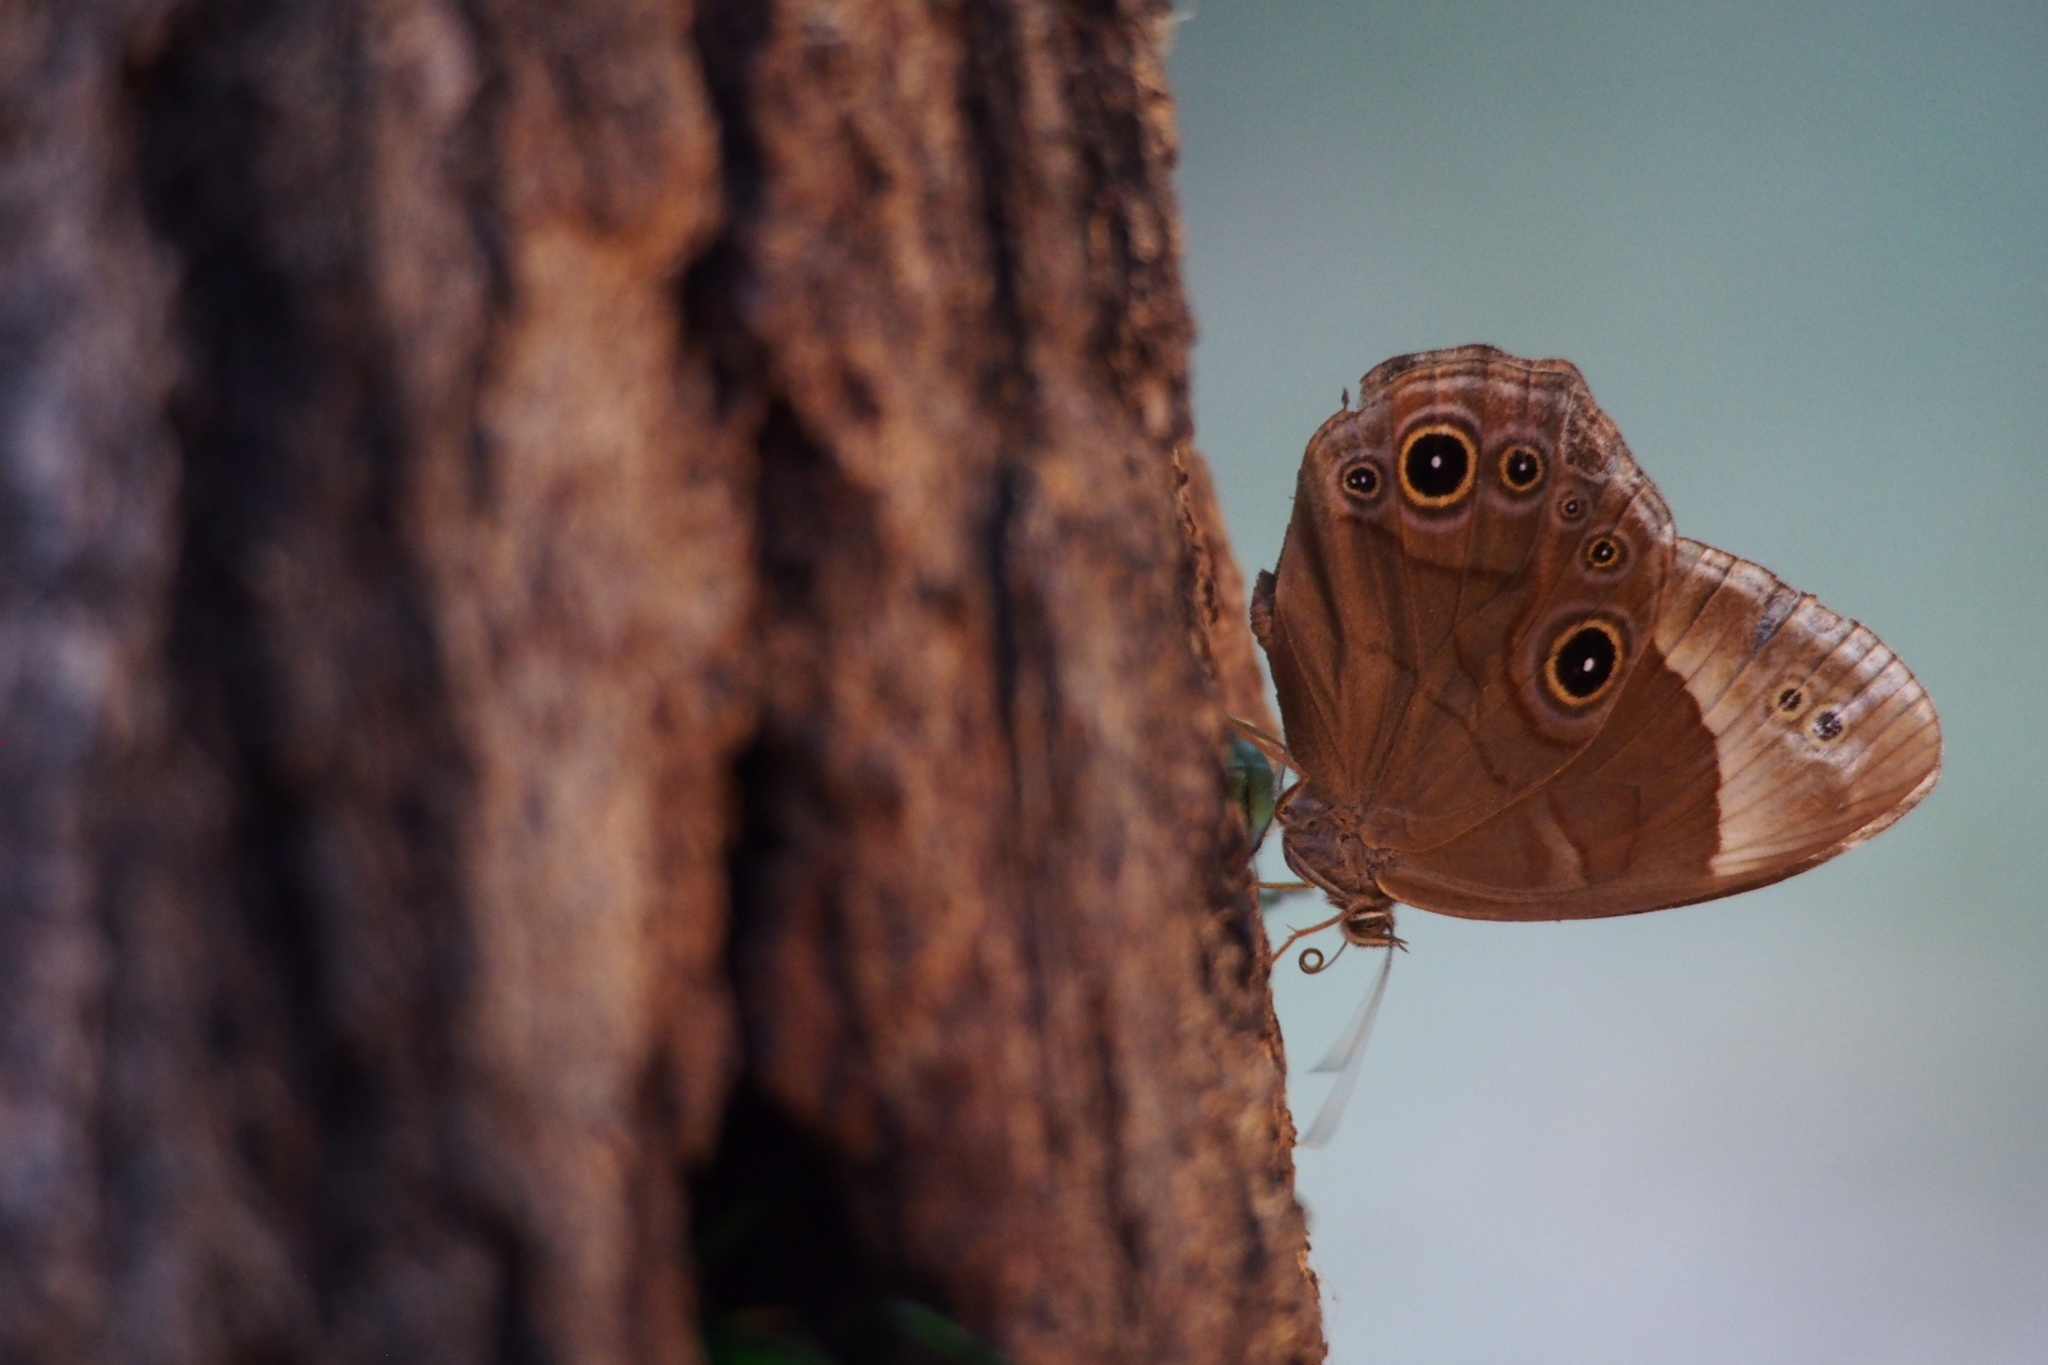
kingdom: Animalia
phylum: Arthropoda
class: Insecta
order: Lepidoptera
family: Nymphalidae
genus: Lethe
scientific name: Lethe diana
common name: Diana treebrown
